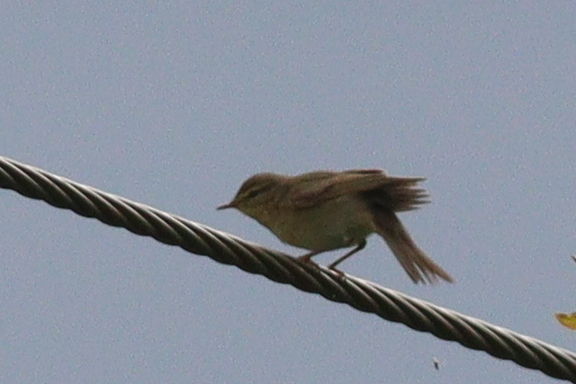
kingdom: Animalia
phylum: Chordata
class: Aves
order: Passeriformes
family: Phylloscopidae
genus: Phylloscopus
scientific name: Phylloscopus trochilus
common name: Willow warbler
